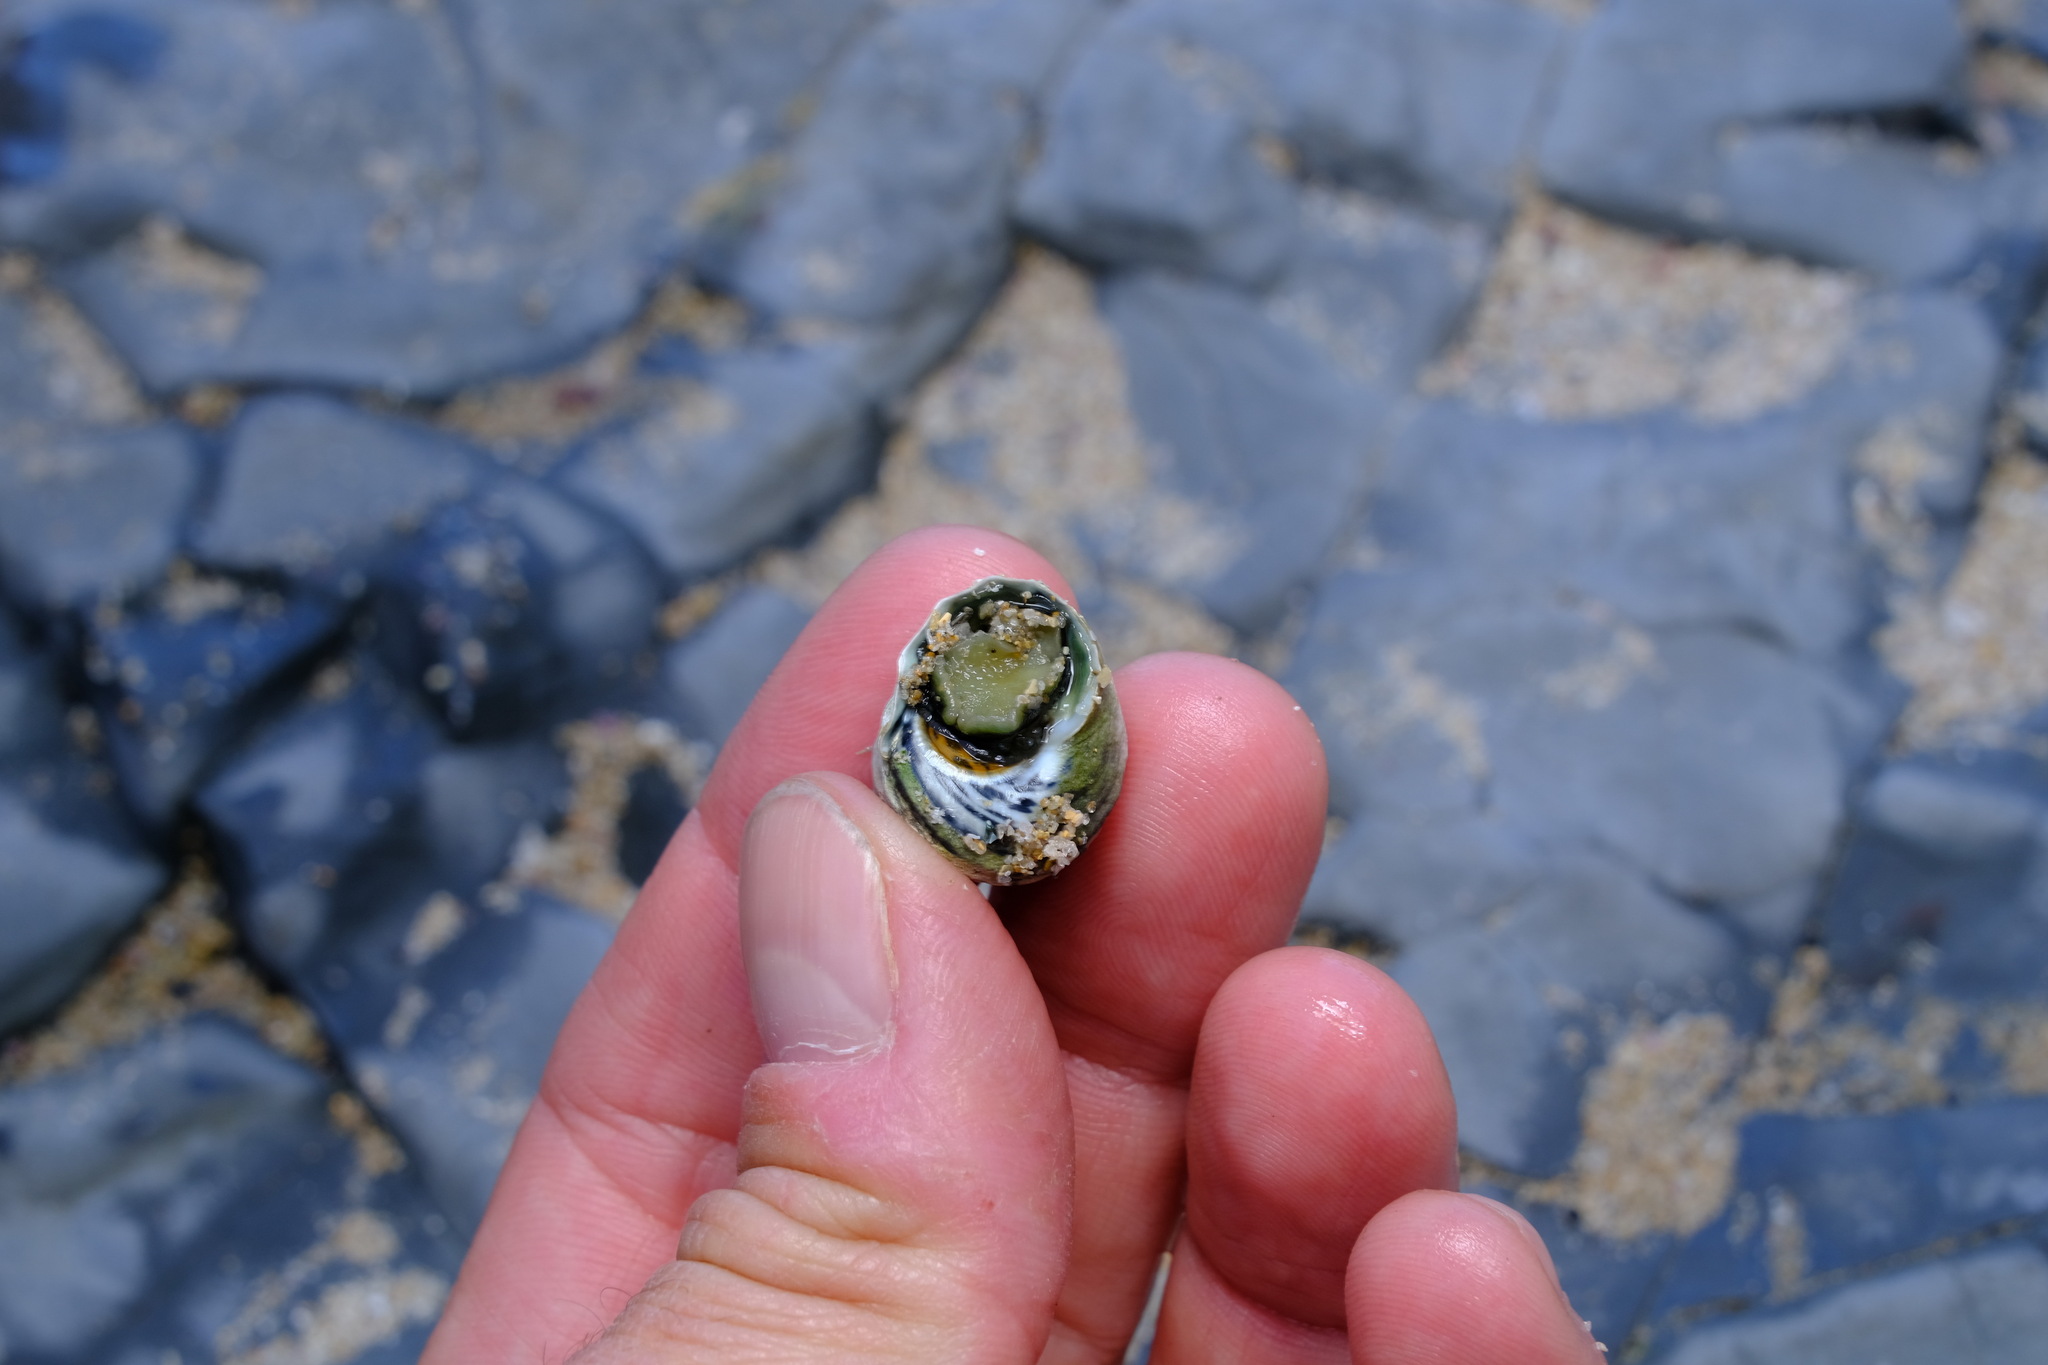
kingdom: Animalia
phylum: Mollusca
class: Gastropoda
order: Trochida
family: Trochidae
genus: Austrocochlea
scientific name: Austrocochlea constricta
